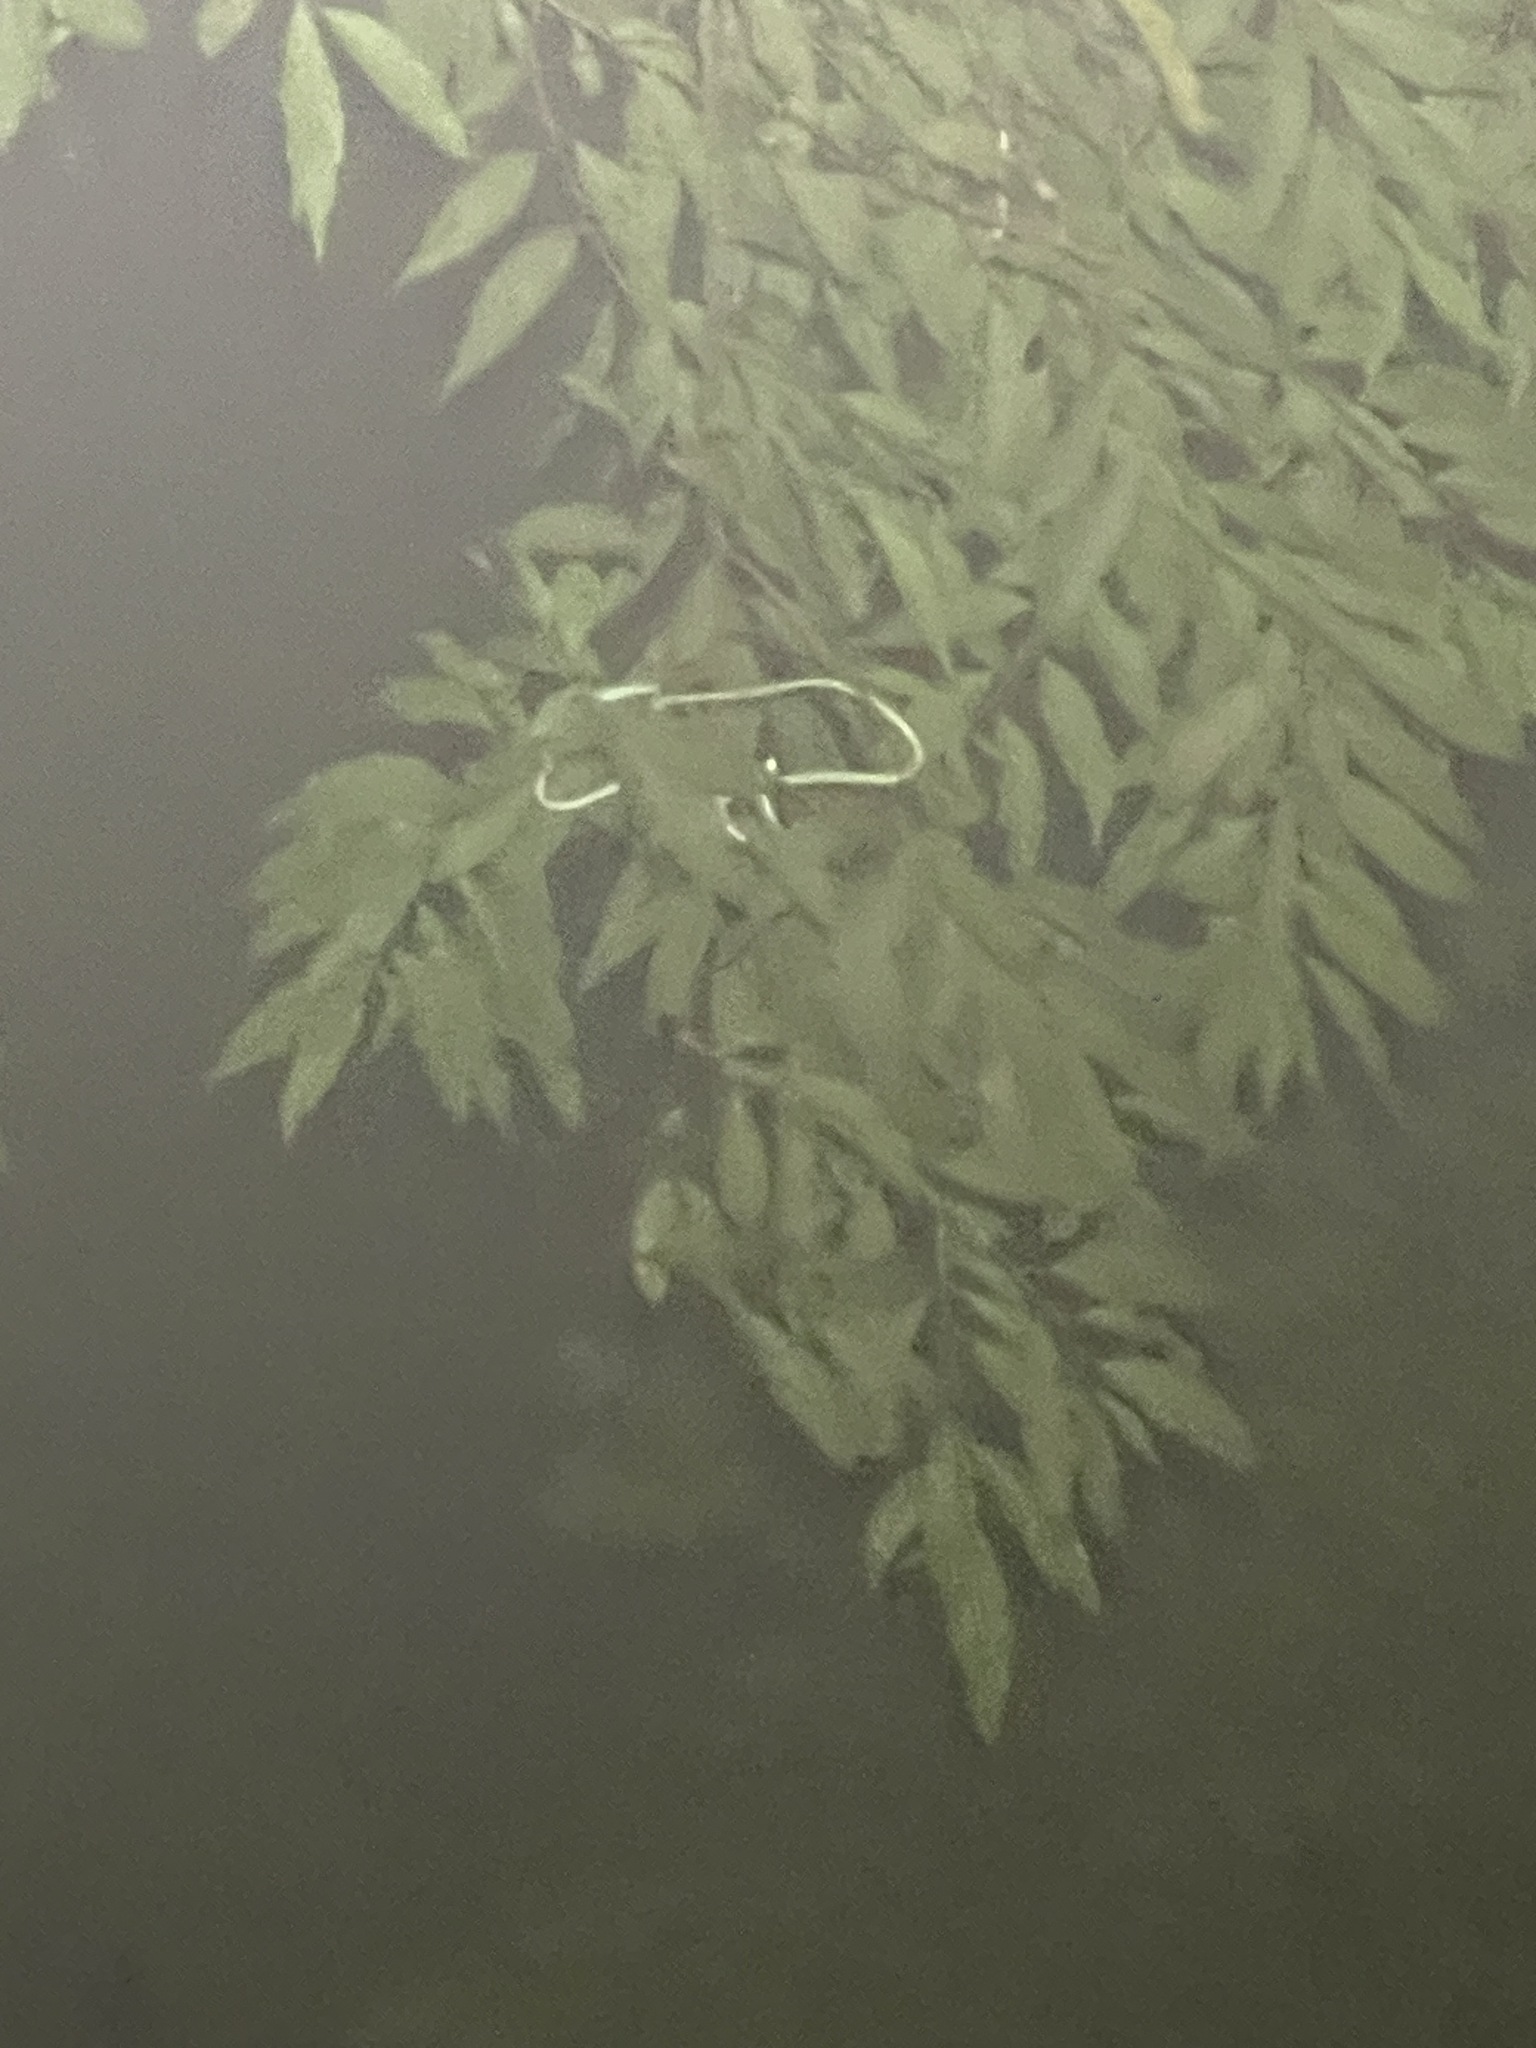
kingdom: Animalia
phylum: Chordata
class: Squamata
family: Colubridae
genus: Ahaetulla
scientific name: Ahaetulla prasina
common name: Oriental whip snake
